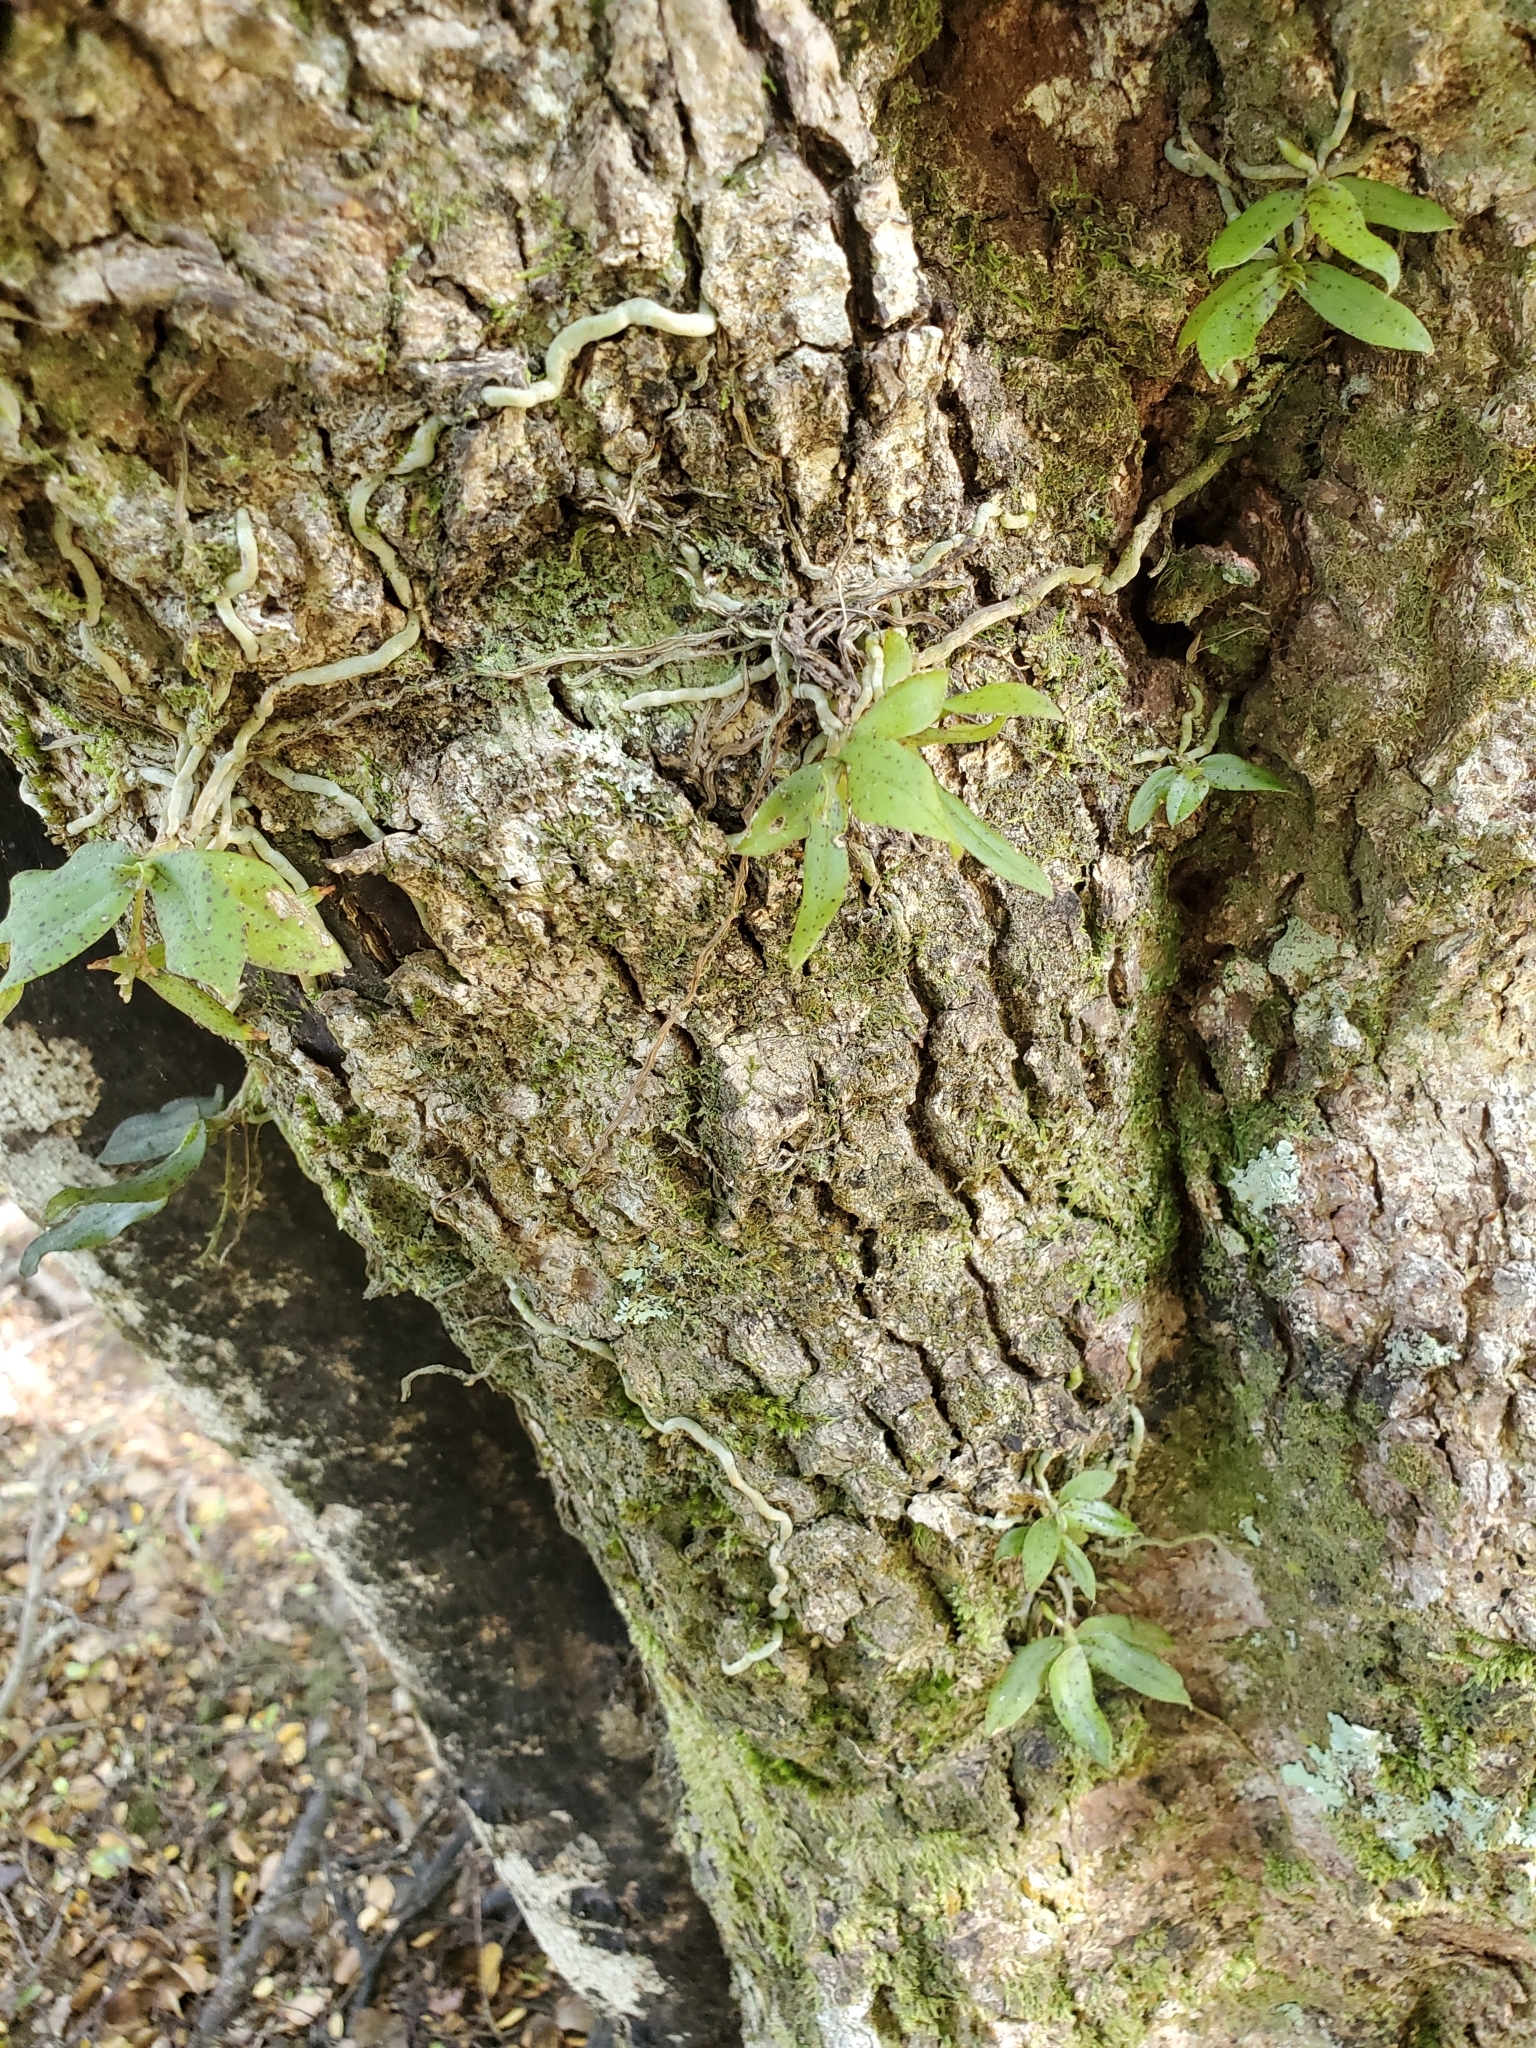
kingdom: Plantae
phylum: Tracheophyta
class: Liliopsida
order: Asparagales
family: Orchidaceae
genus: Drymoanthus
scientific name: Drymoanthus flavus
